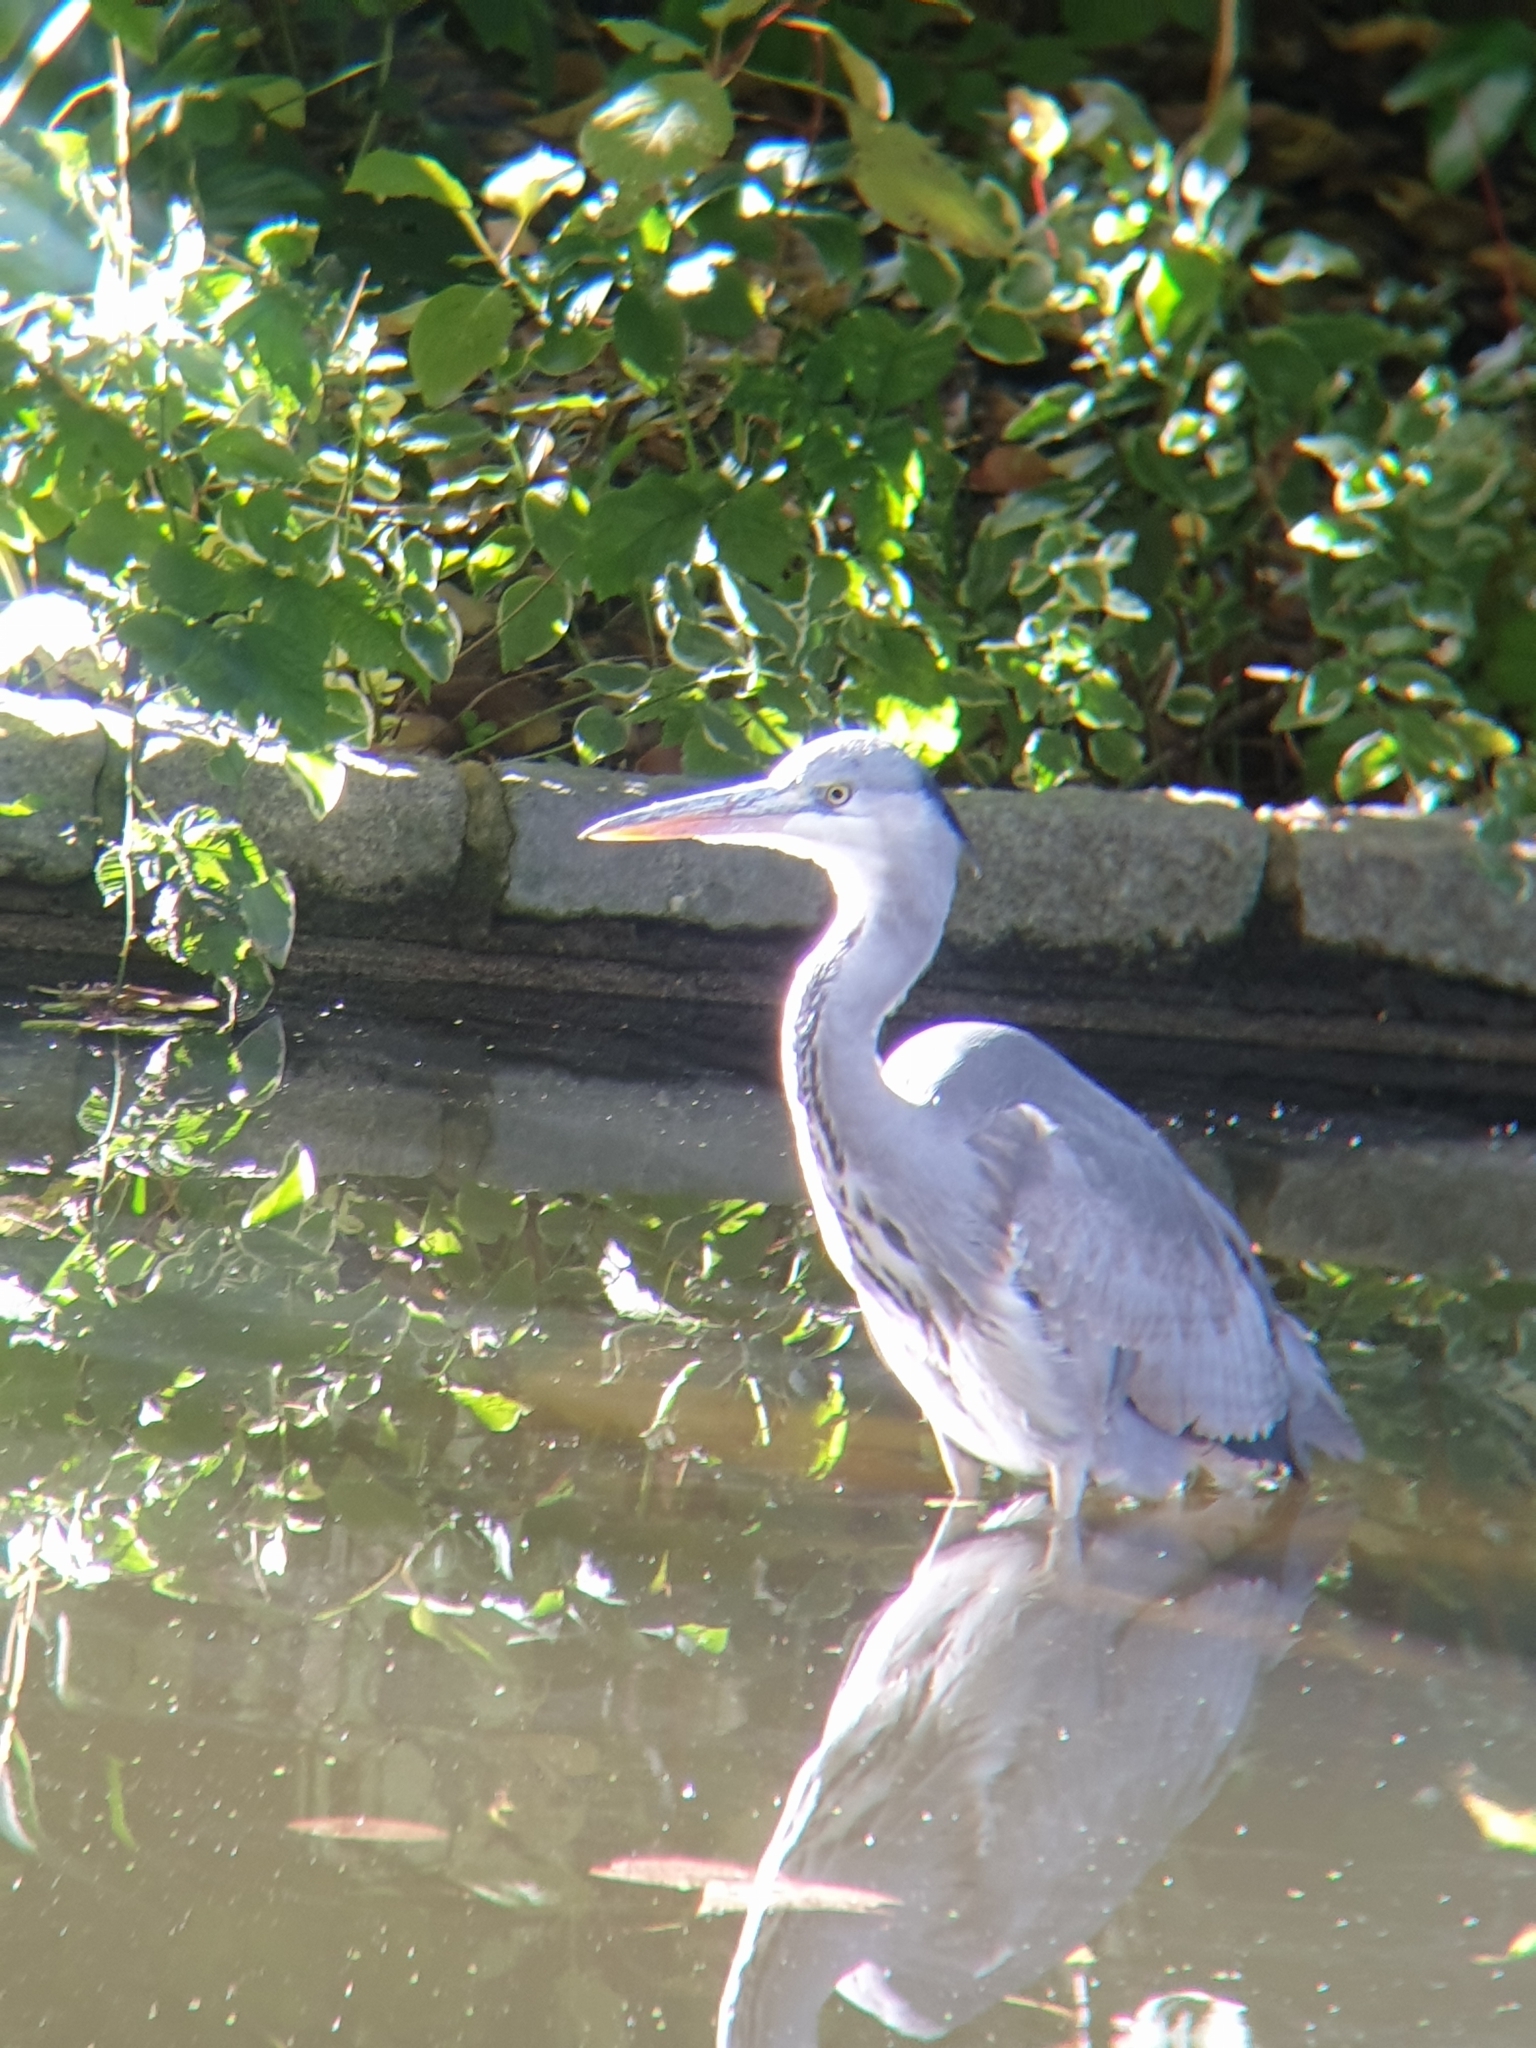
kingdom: Animalia
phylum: Chordata
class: Aves
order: Pelecaniformes
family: Ardeidae
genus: Ardea
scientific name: Ardea cinerea
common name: Grey heron
